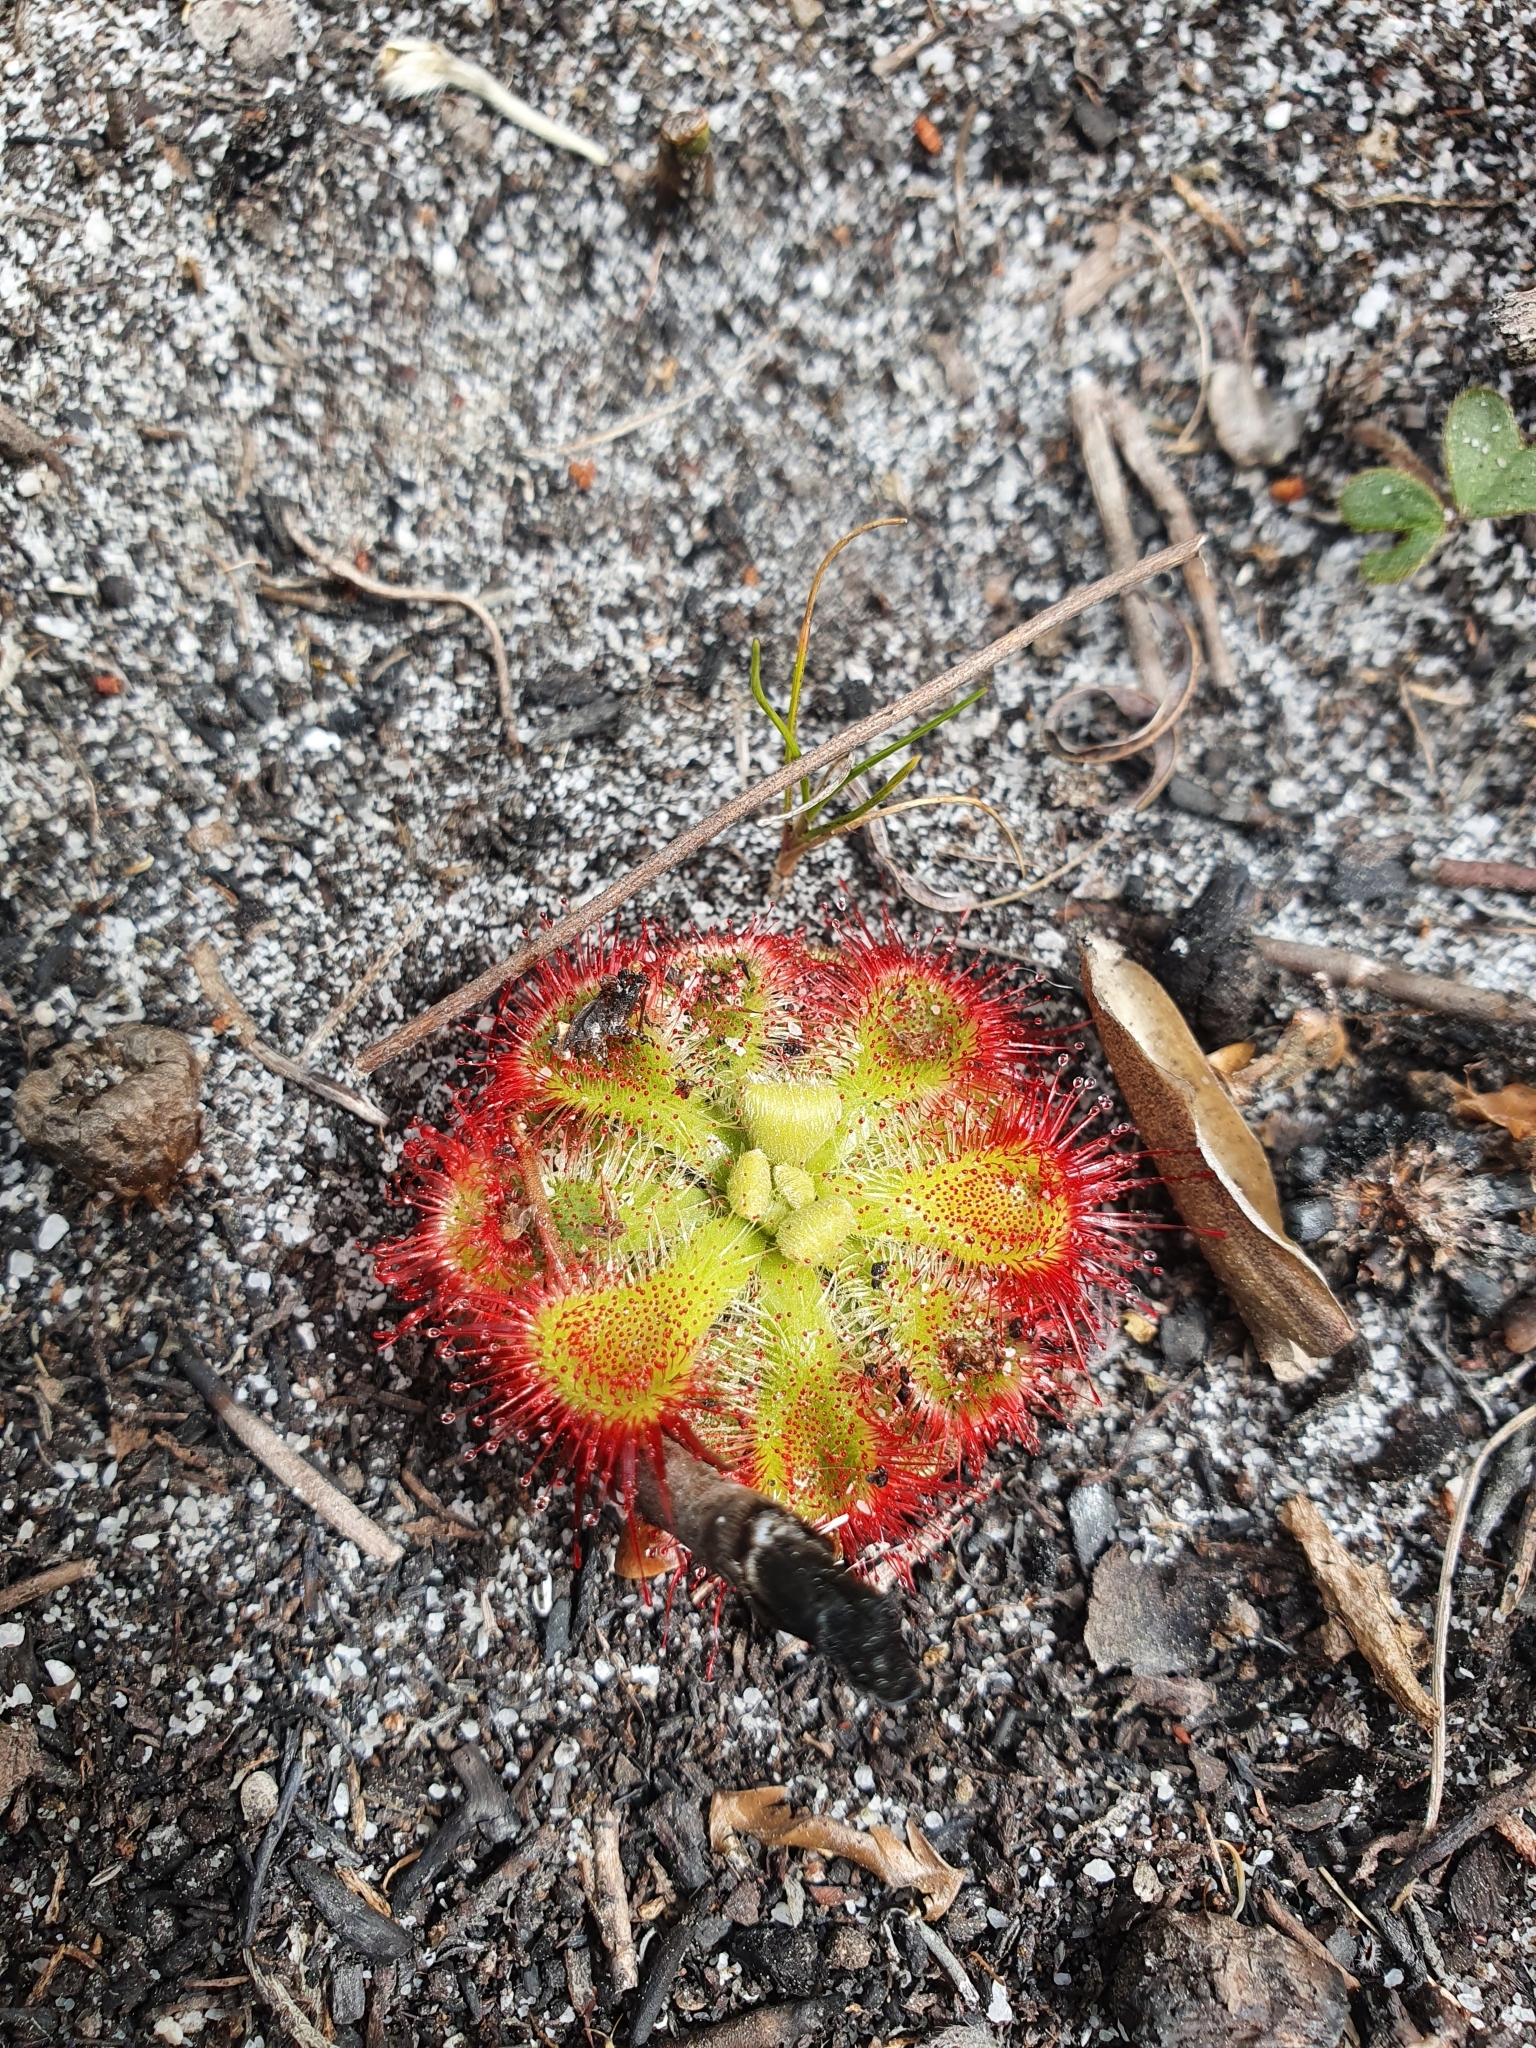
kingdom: Plantae
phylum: Tracheophyta
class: Magnoliopsida
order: Caryophyllales
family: Droseraceae
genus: Drosera
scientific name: Drosera xerophila
